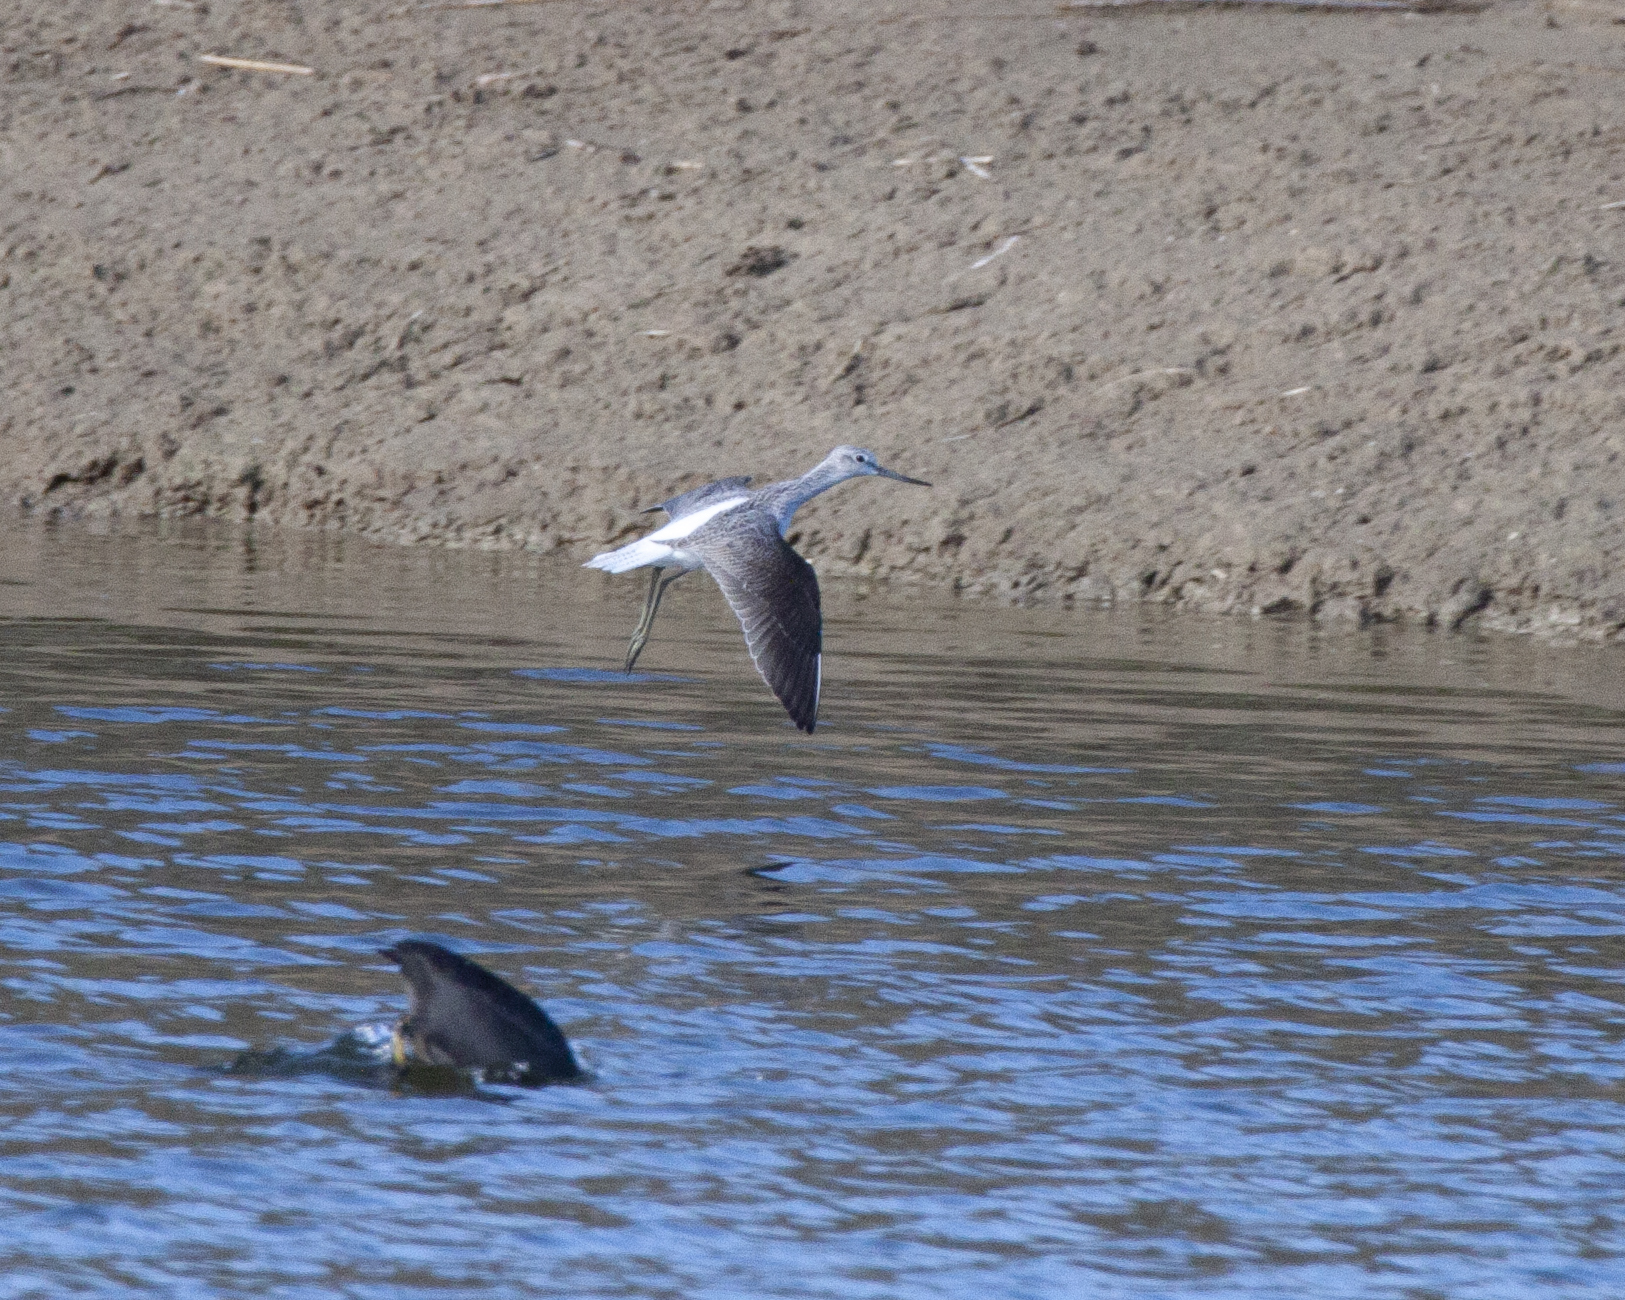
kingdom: Animalia
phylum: Chordata
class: Aves
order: Charadriiformes
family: Scolopacidae
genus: Tringa
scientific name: Tringa nebularia
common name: Common greenshank
